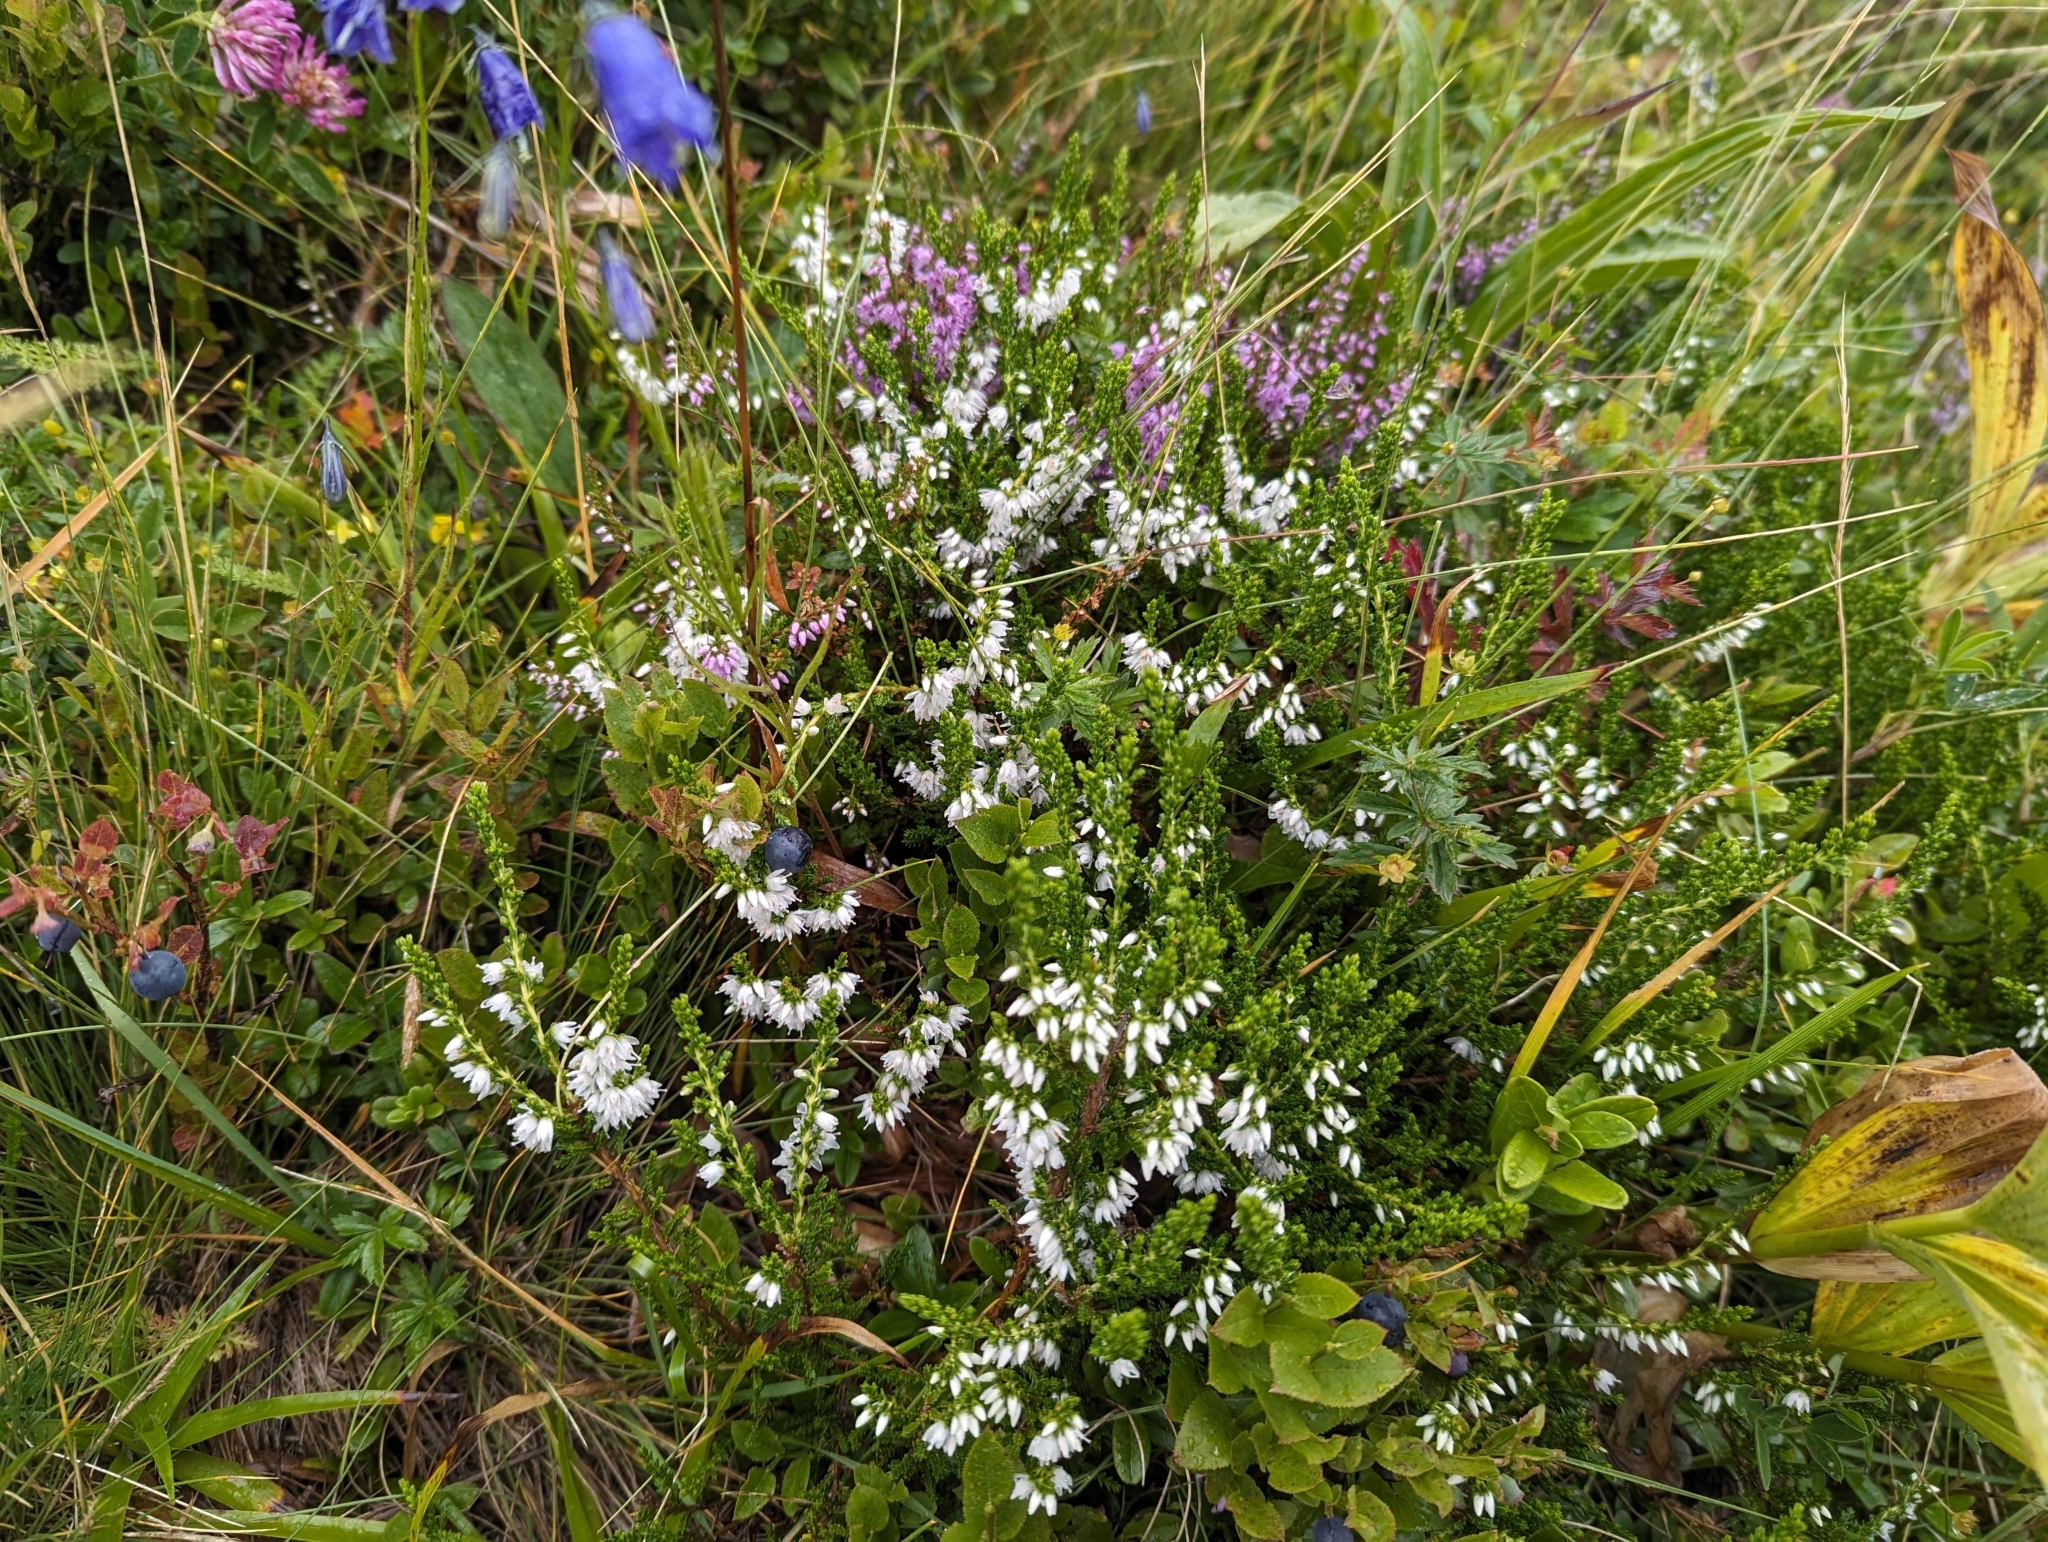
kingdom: Plantae
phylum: Tracheophyta
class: Magnoliopsida
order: Ericales
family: Ericaceae
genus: Calluna
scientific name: Calluna vulgaris
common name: Heather
